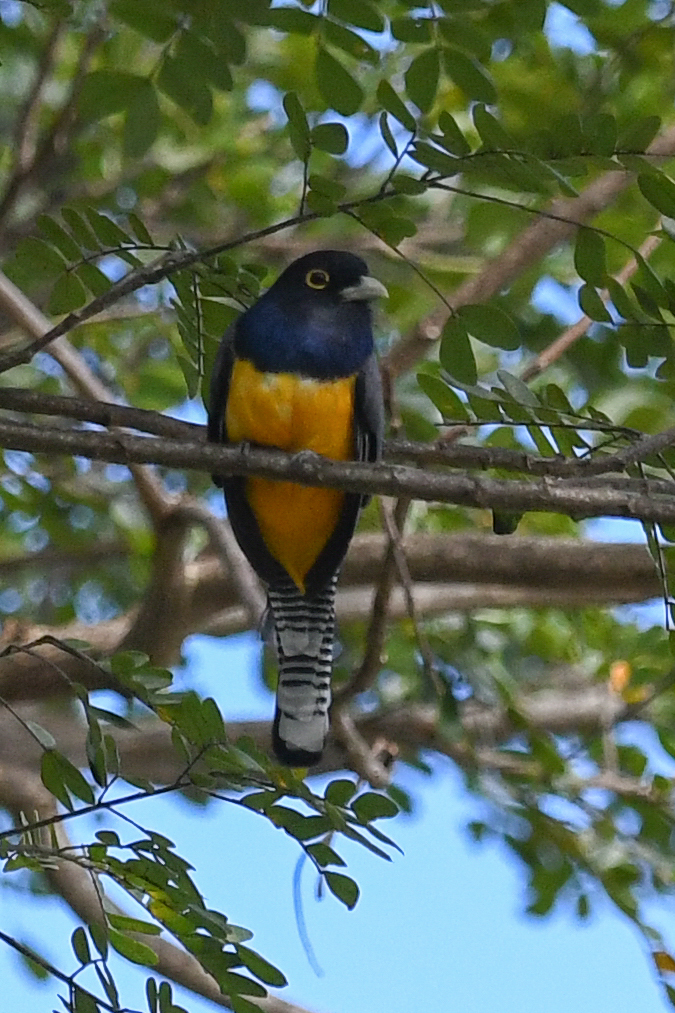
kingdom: Animalia
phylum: Chordata
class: Aves
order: Trogoniformes
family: Trogonidae
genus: Trogon
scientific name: Trogon caligatus
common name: Gartered trogon
